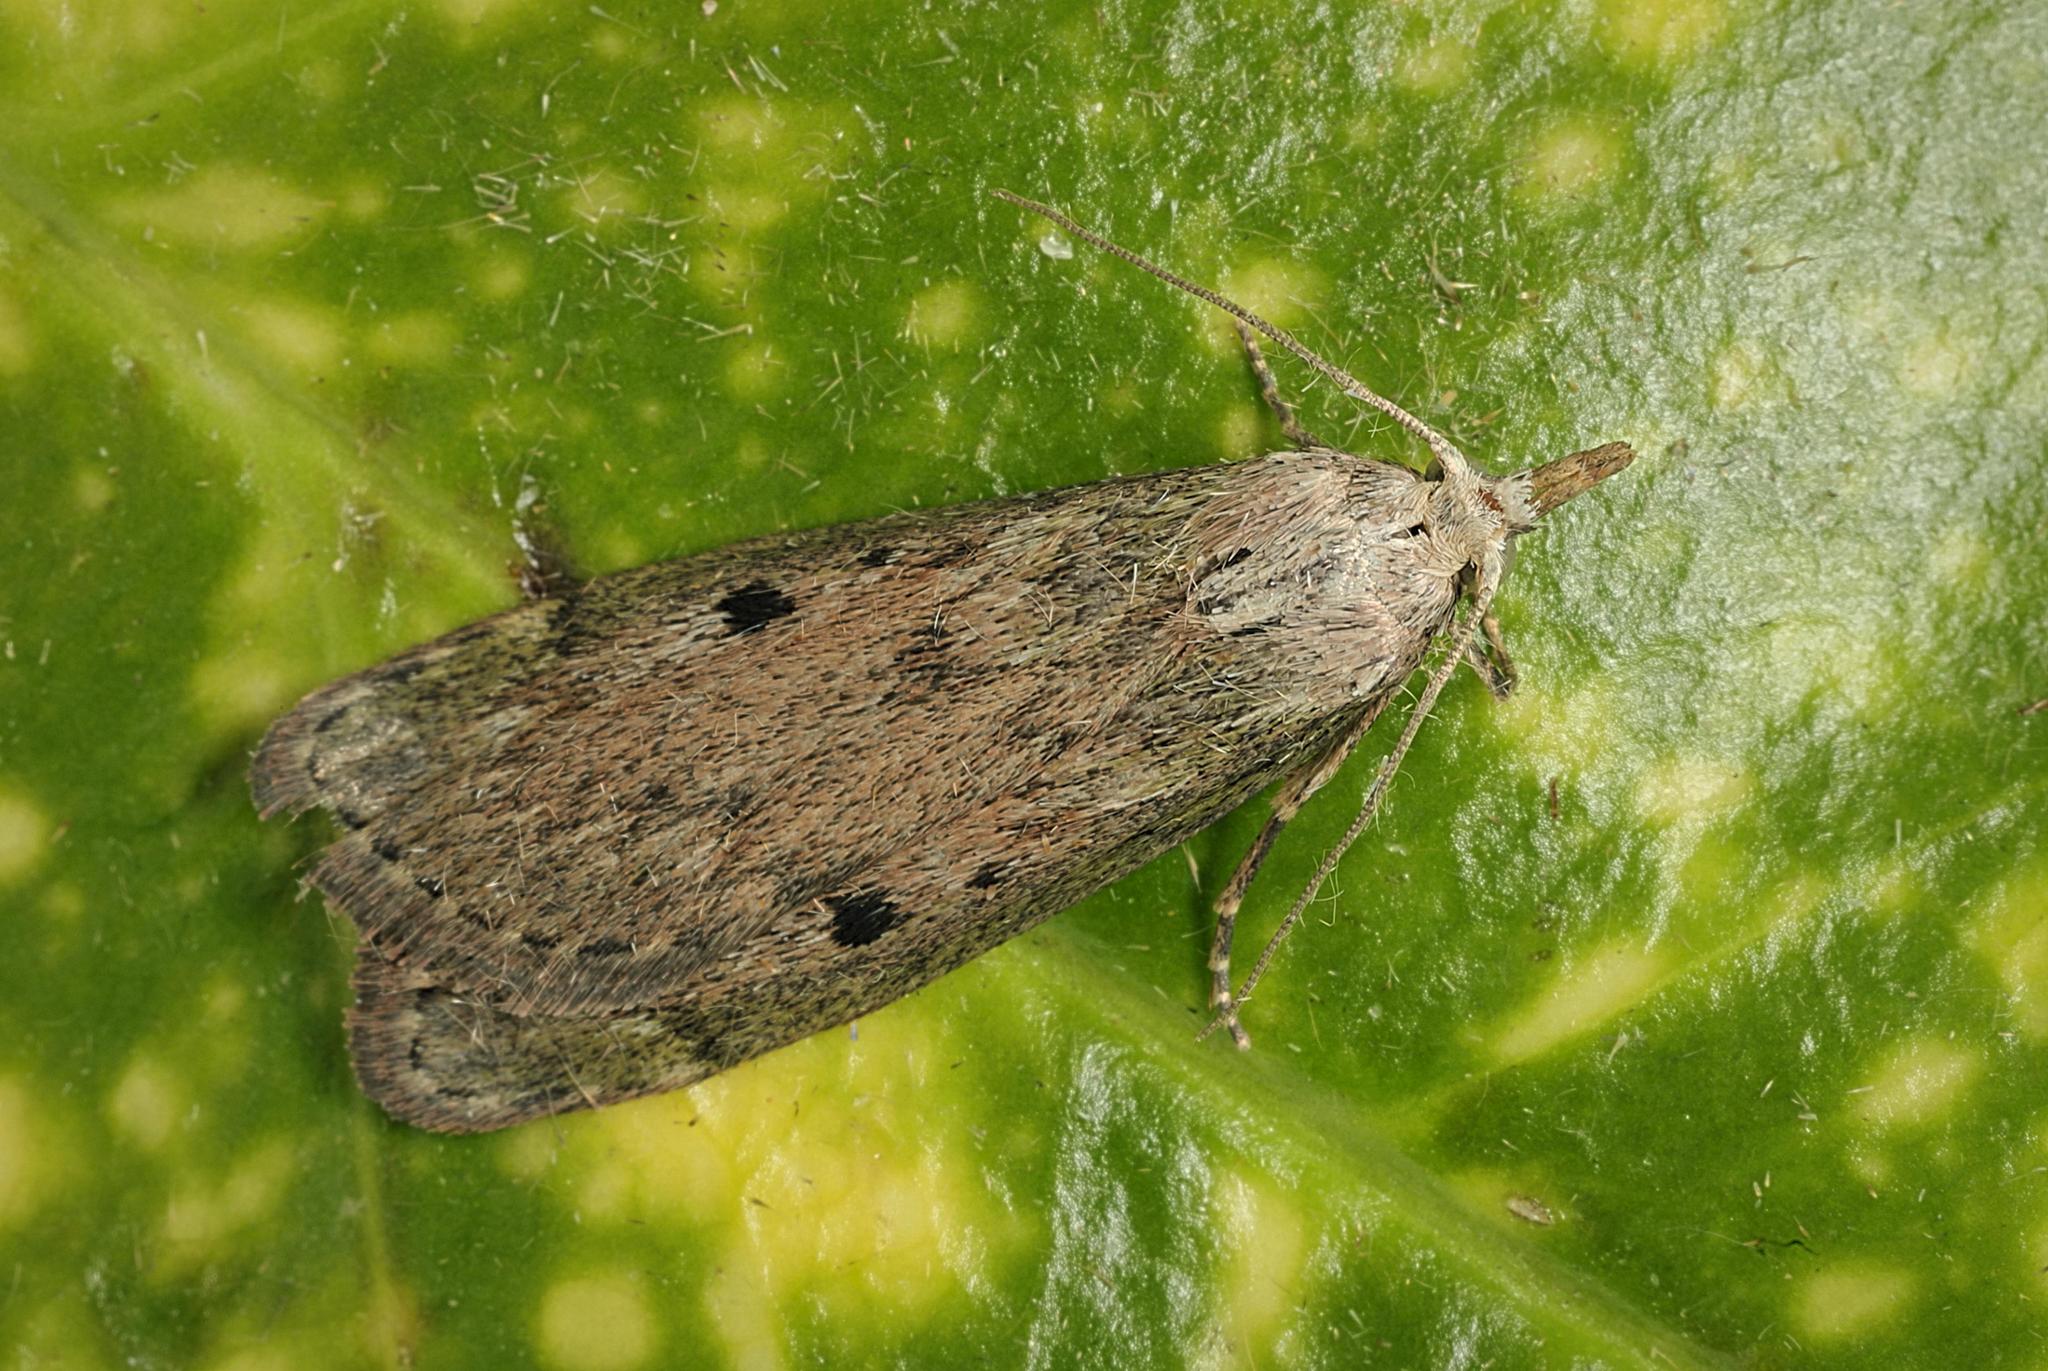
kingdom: Animalia
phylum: Arthropoda
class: Insecta
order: Lepidoptera
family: Pyralidae
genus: Aphomia
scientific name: Aphomia sociella
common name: Bee moth
